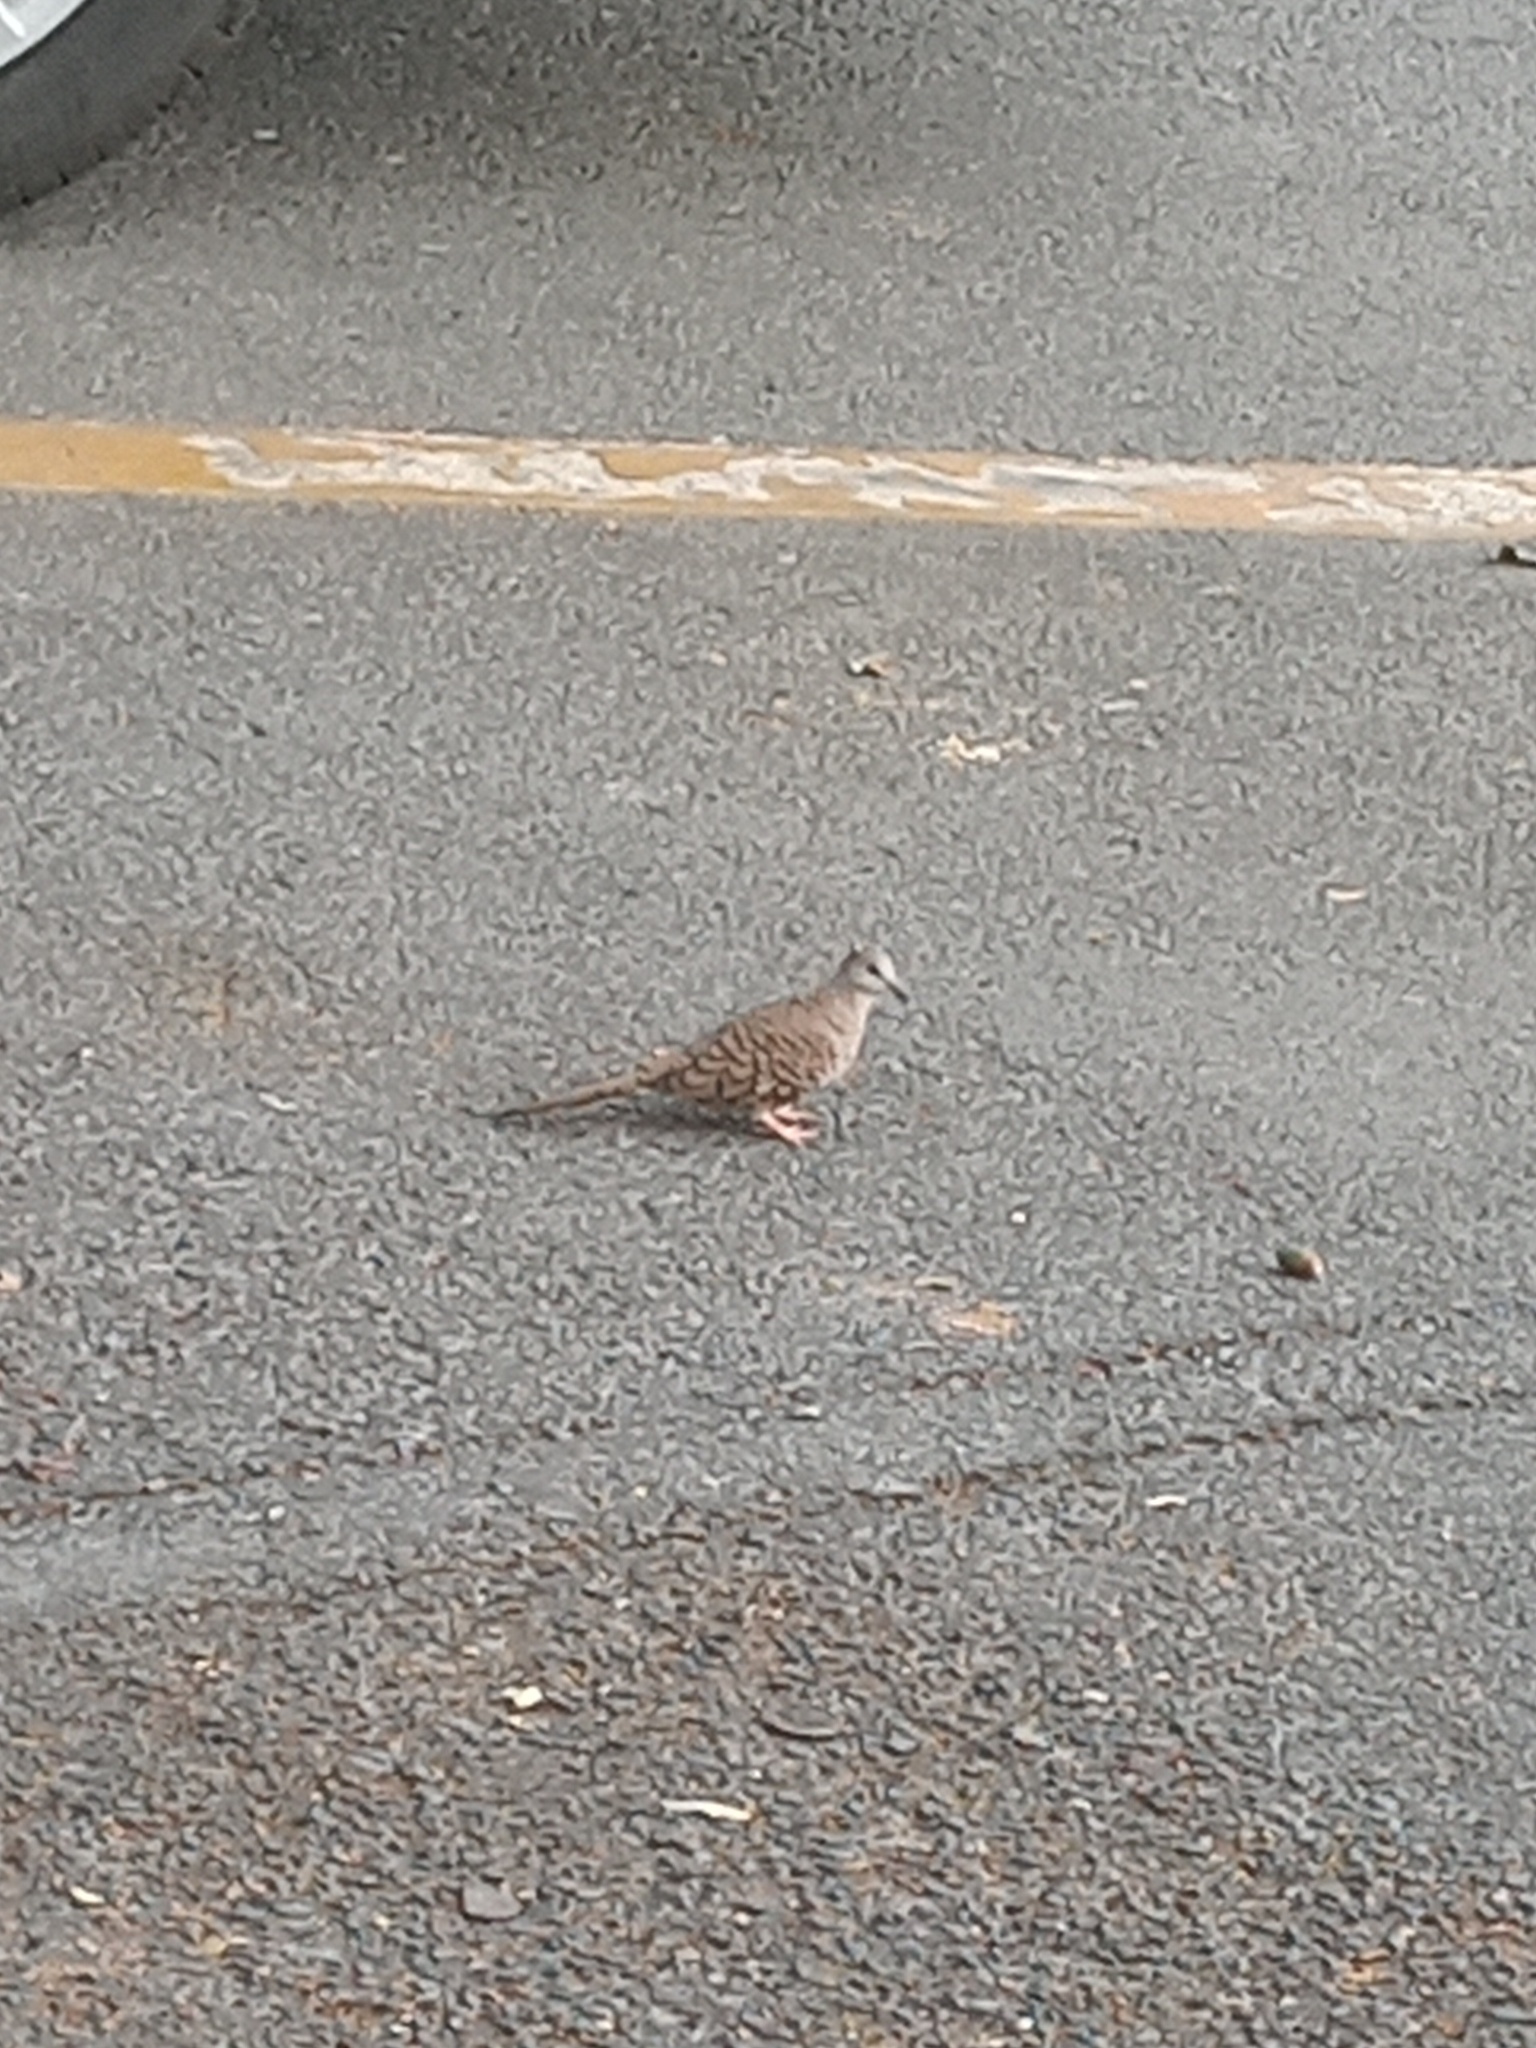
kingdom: Animalia
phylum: Chordata
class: Aves
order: Columbiformes
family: Columbidae
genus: Columbina
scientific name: Columbina inca
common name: Inca dove
